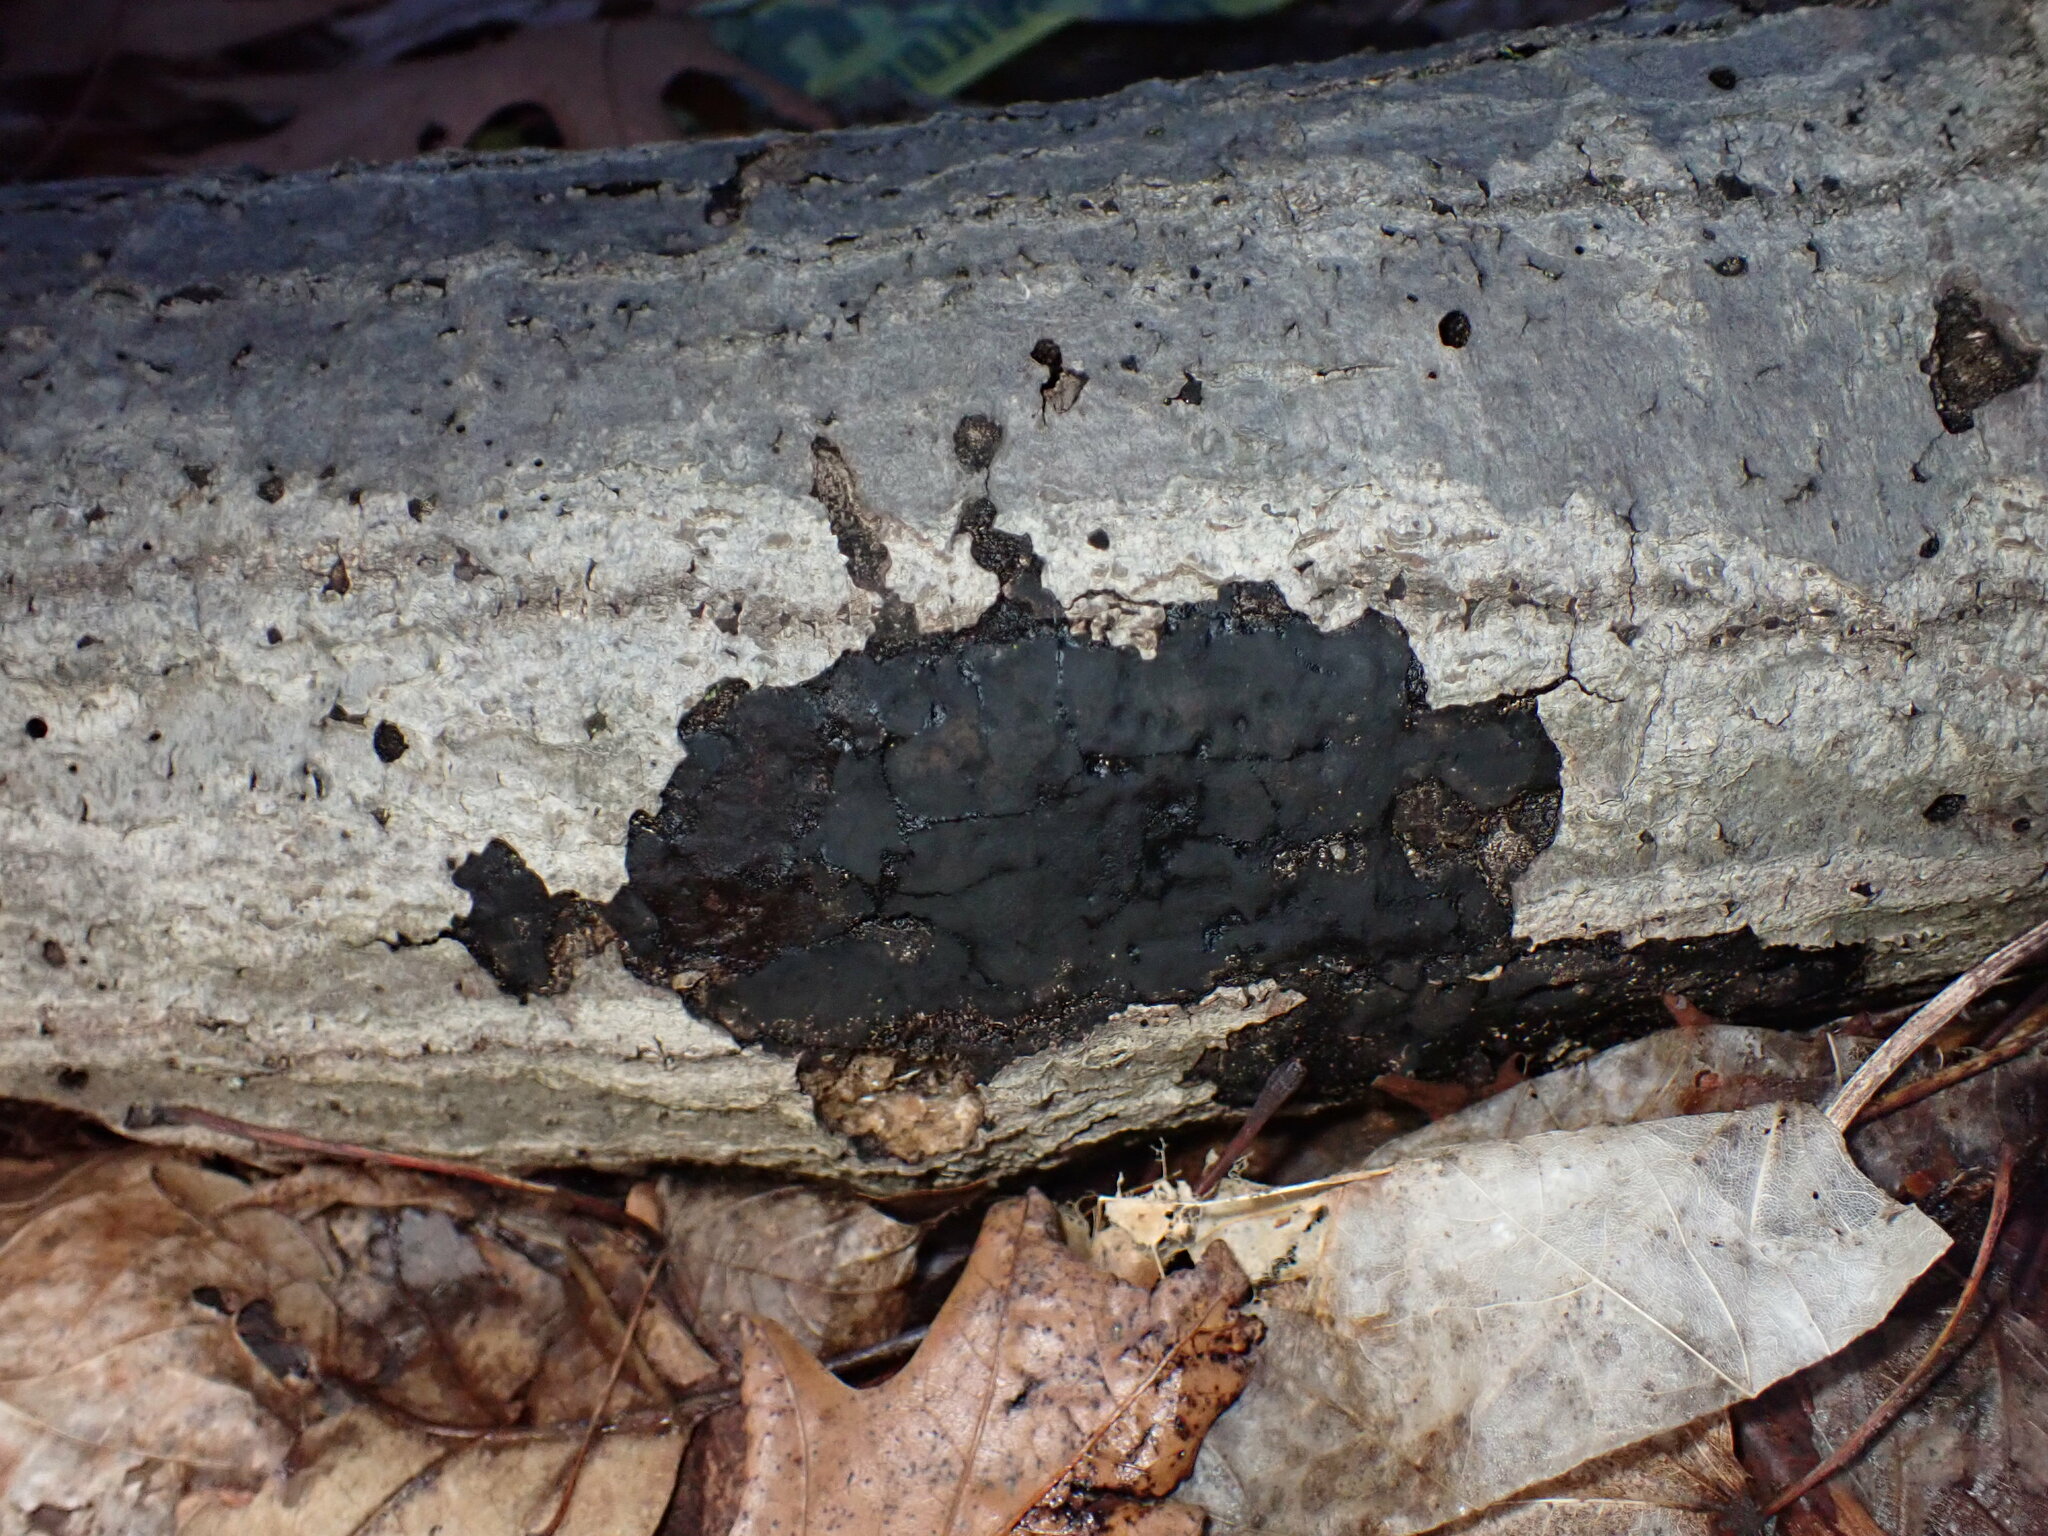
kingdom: Fungi
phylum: Ascomycota
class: Sordariomycetes
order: Xylariales
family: Diatrypaceae
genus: Diatrype
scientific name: Diatrype stigma
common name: Common tarcrust
